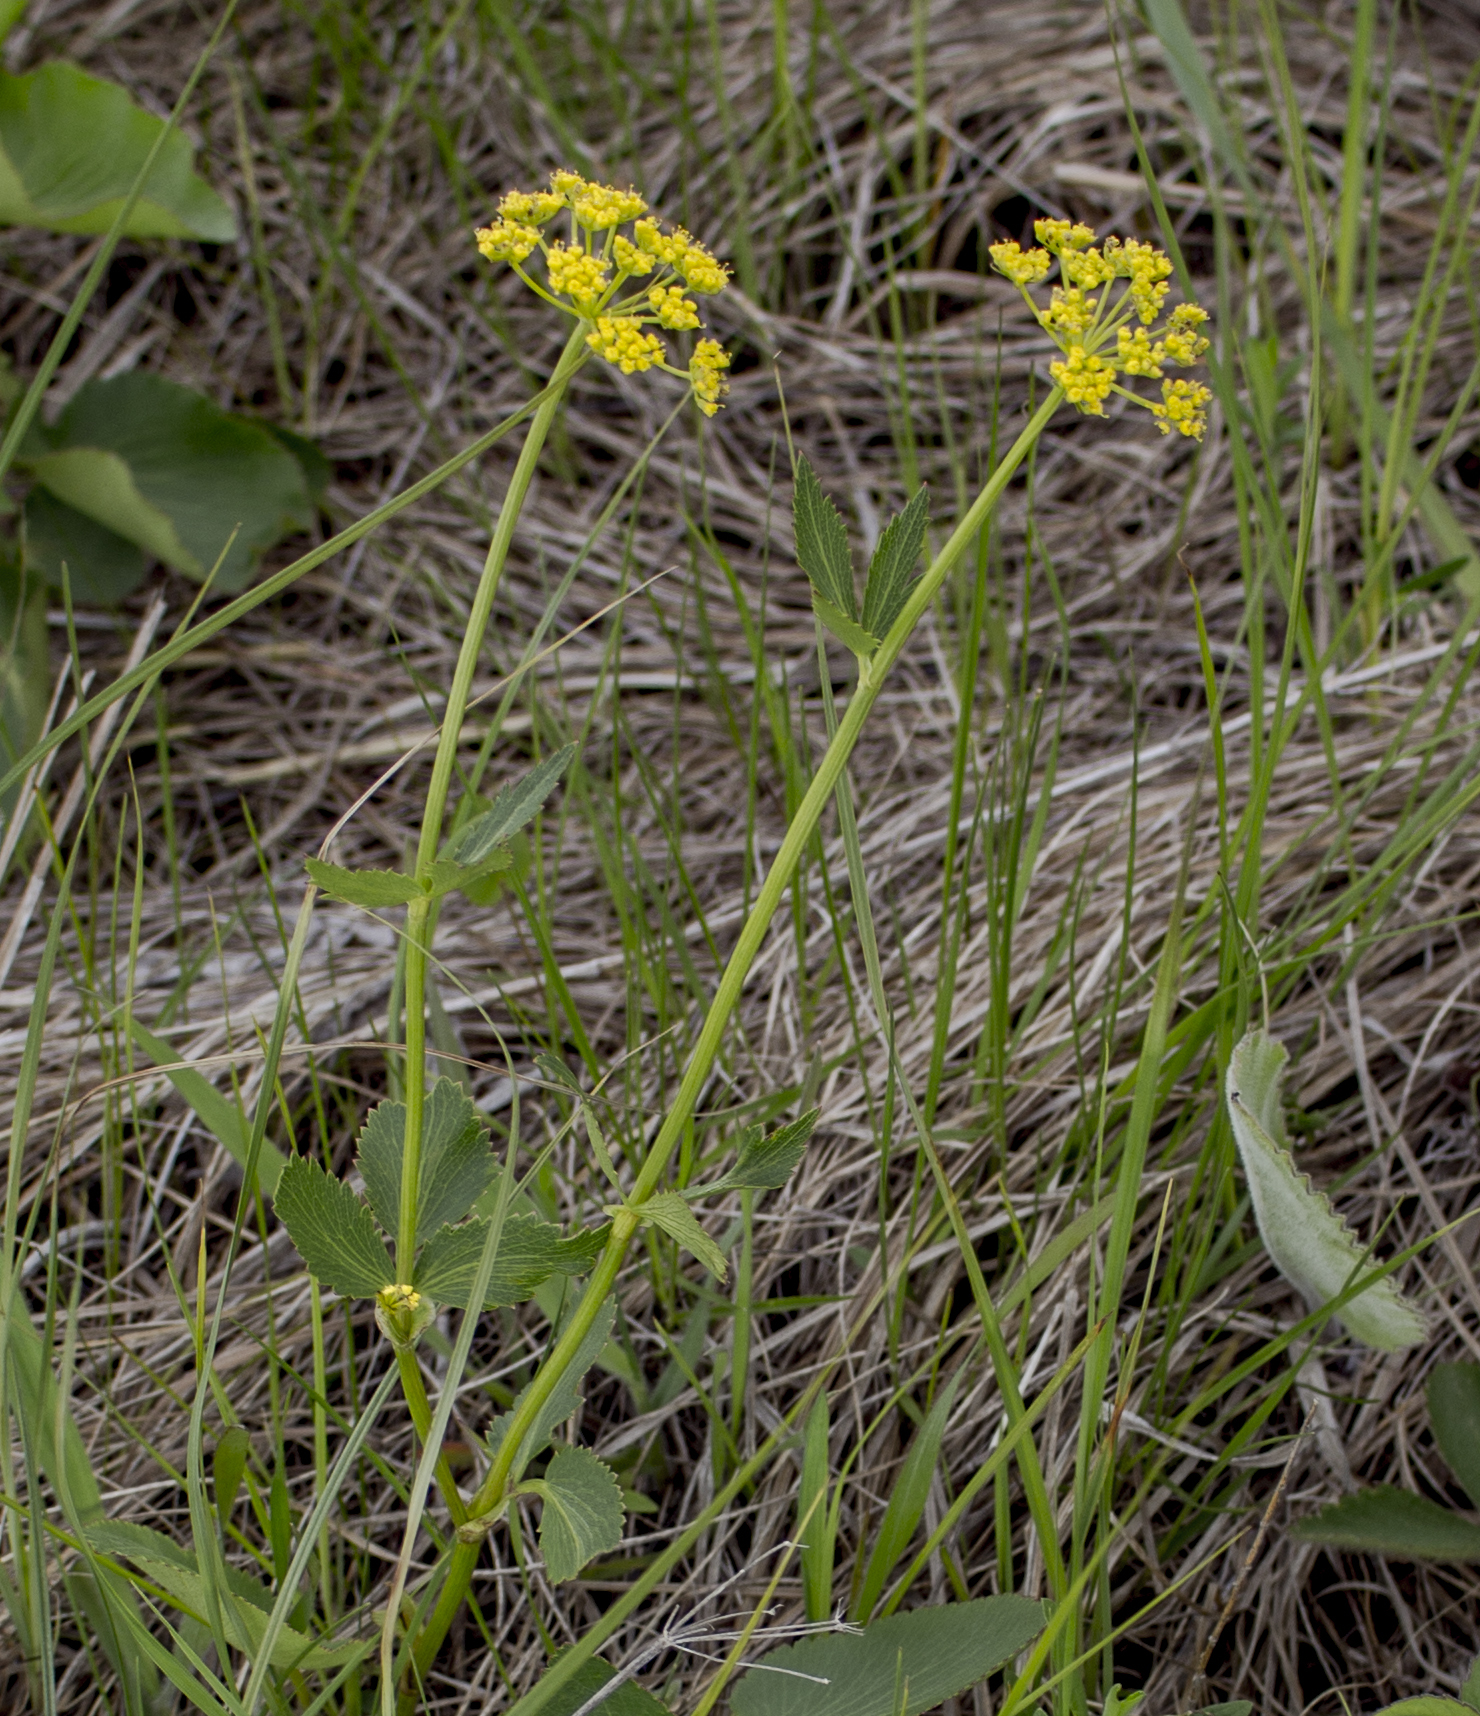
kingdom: Plantae
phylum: Tracheophyta
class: Magnoliopsida
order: Apiales
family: Apiaceae
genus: Zizia
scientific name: Zizia aurea
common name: Golden alexanders
